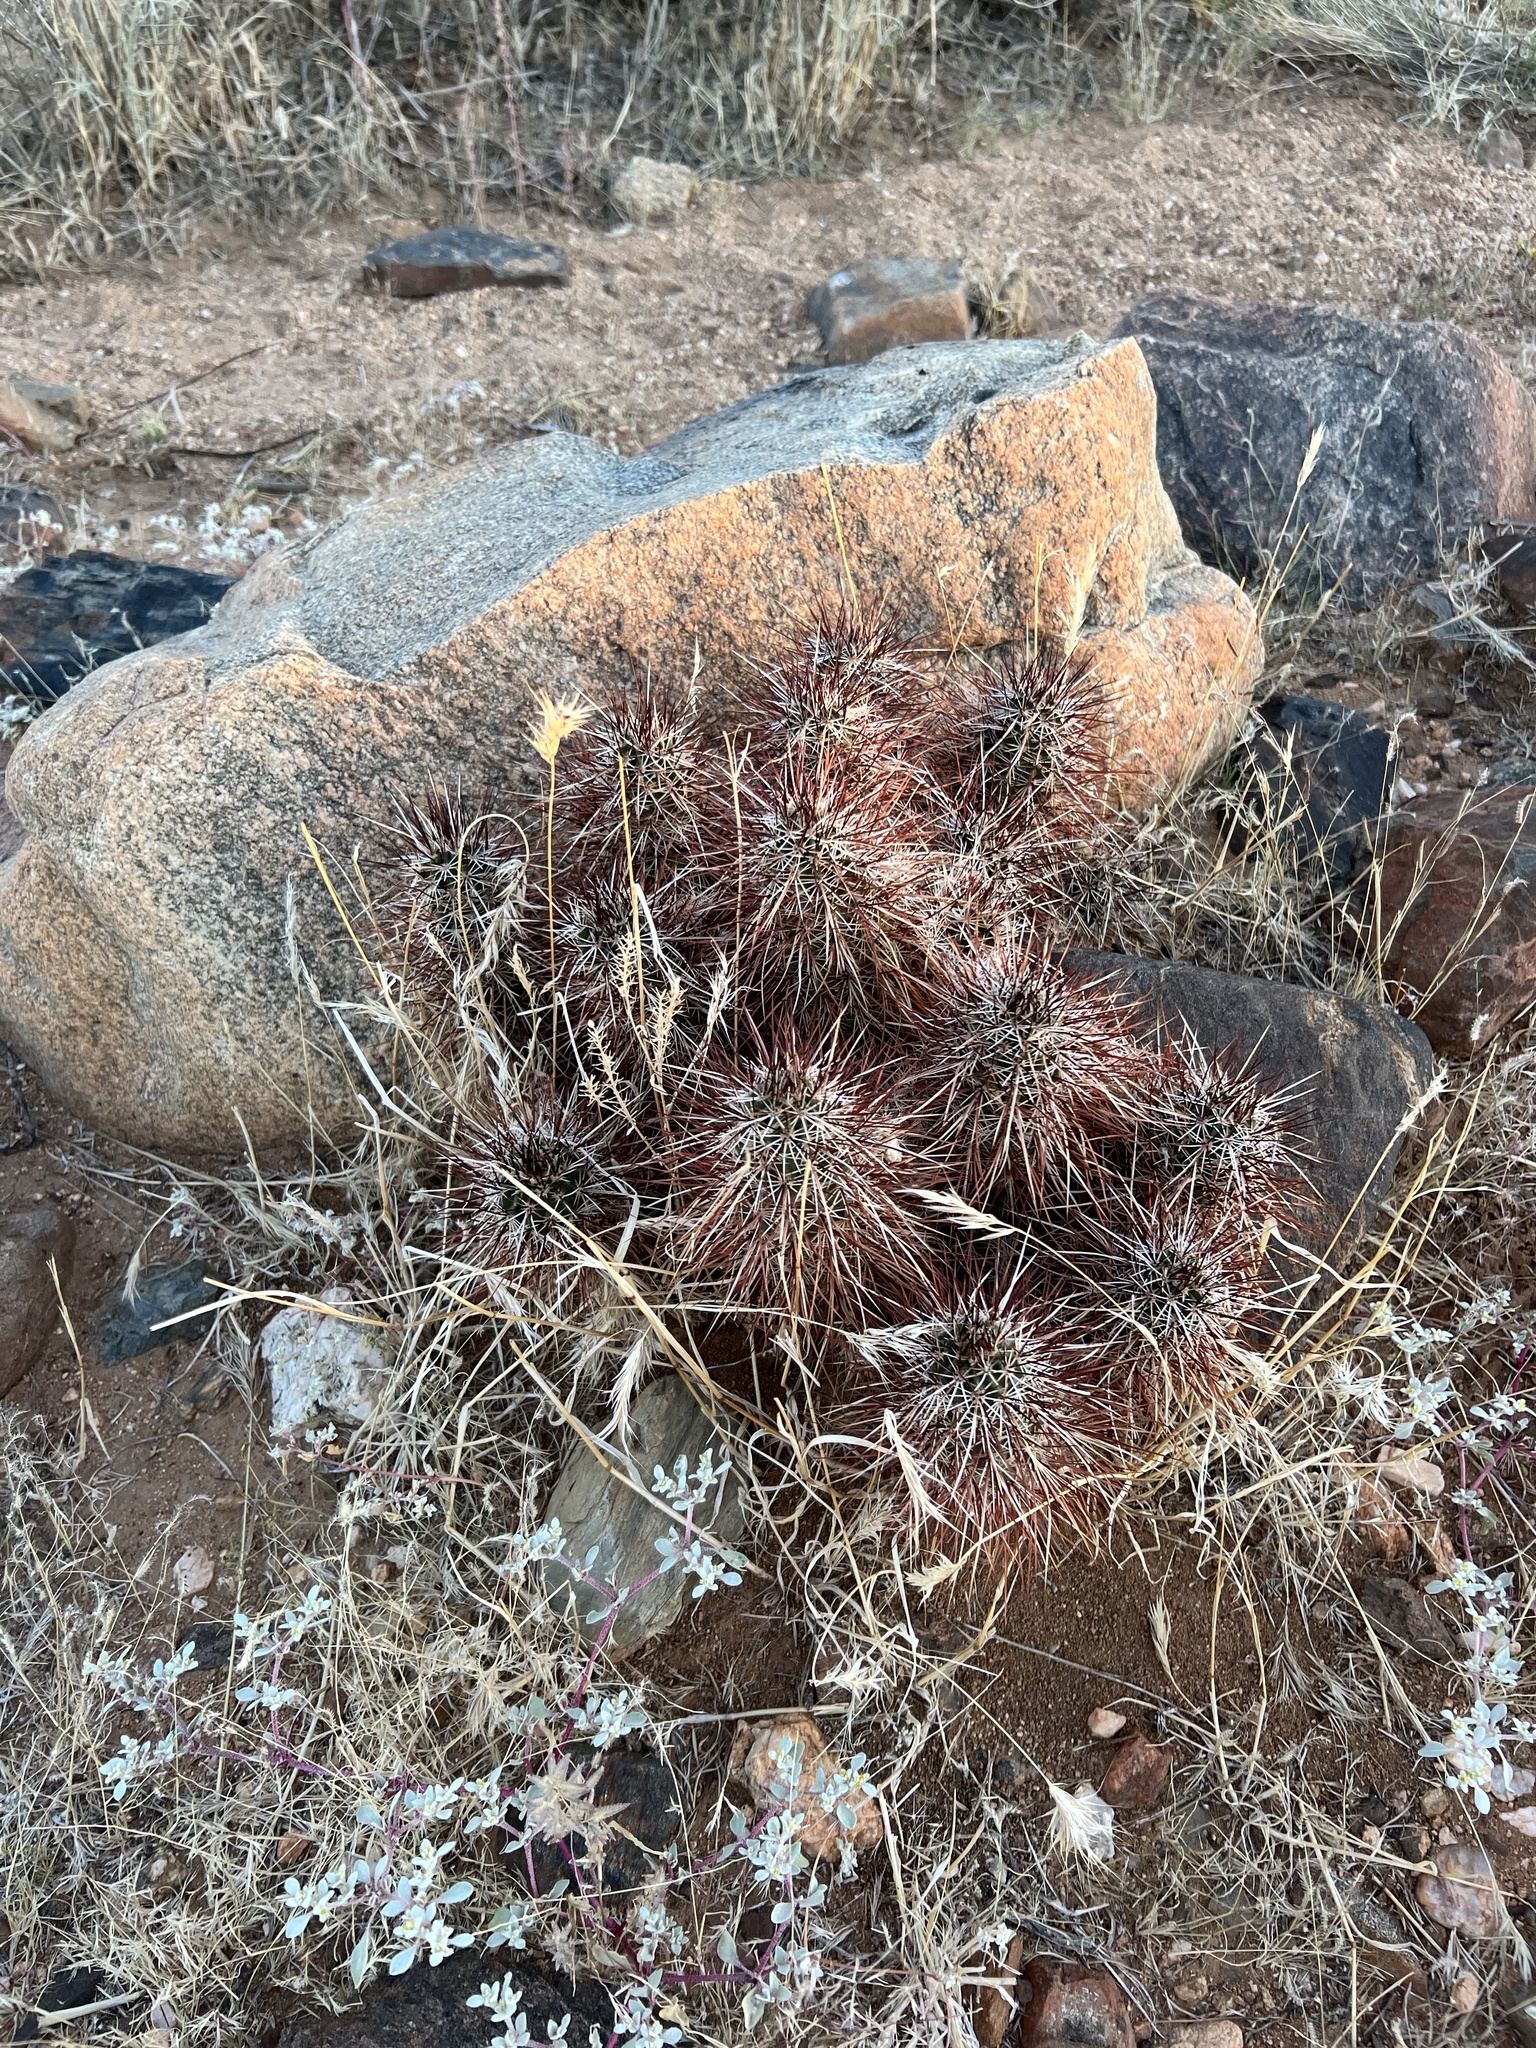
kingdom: Plantae
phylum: Tracheophyta
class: Magnoliopsida
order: Caryophyllales
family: Cactaceae
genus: Echinocereus
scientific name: Echinocereus engelmannii
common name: Engelmann's hedgehog cactus
